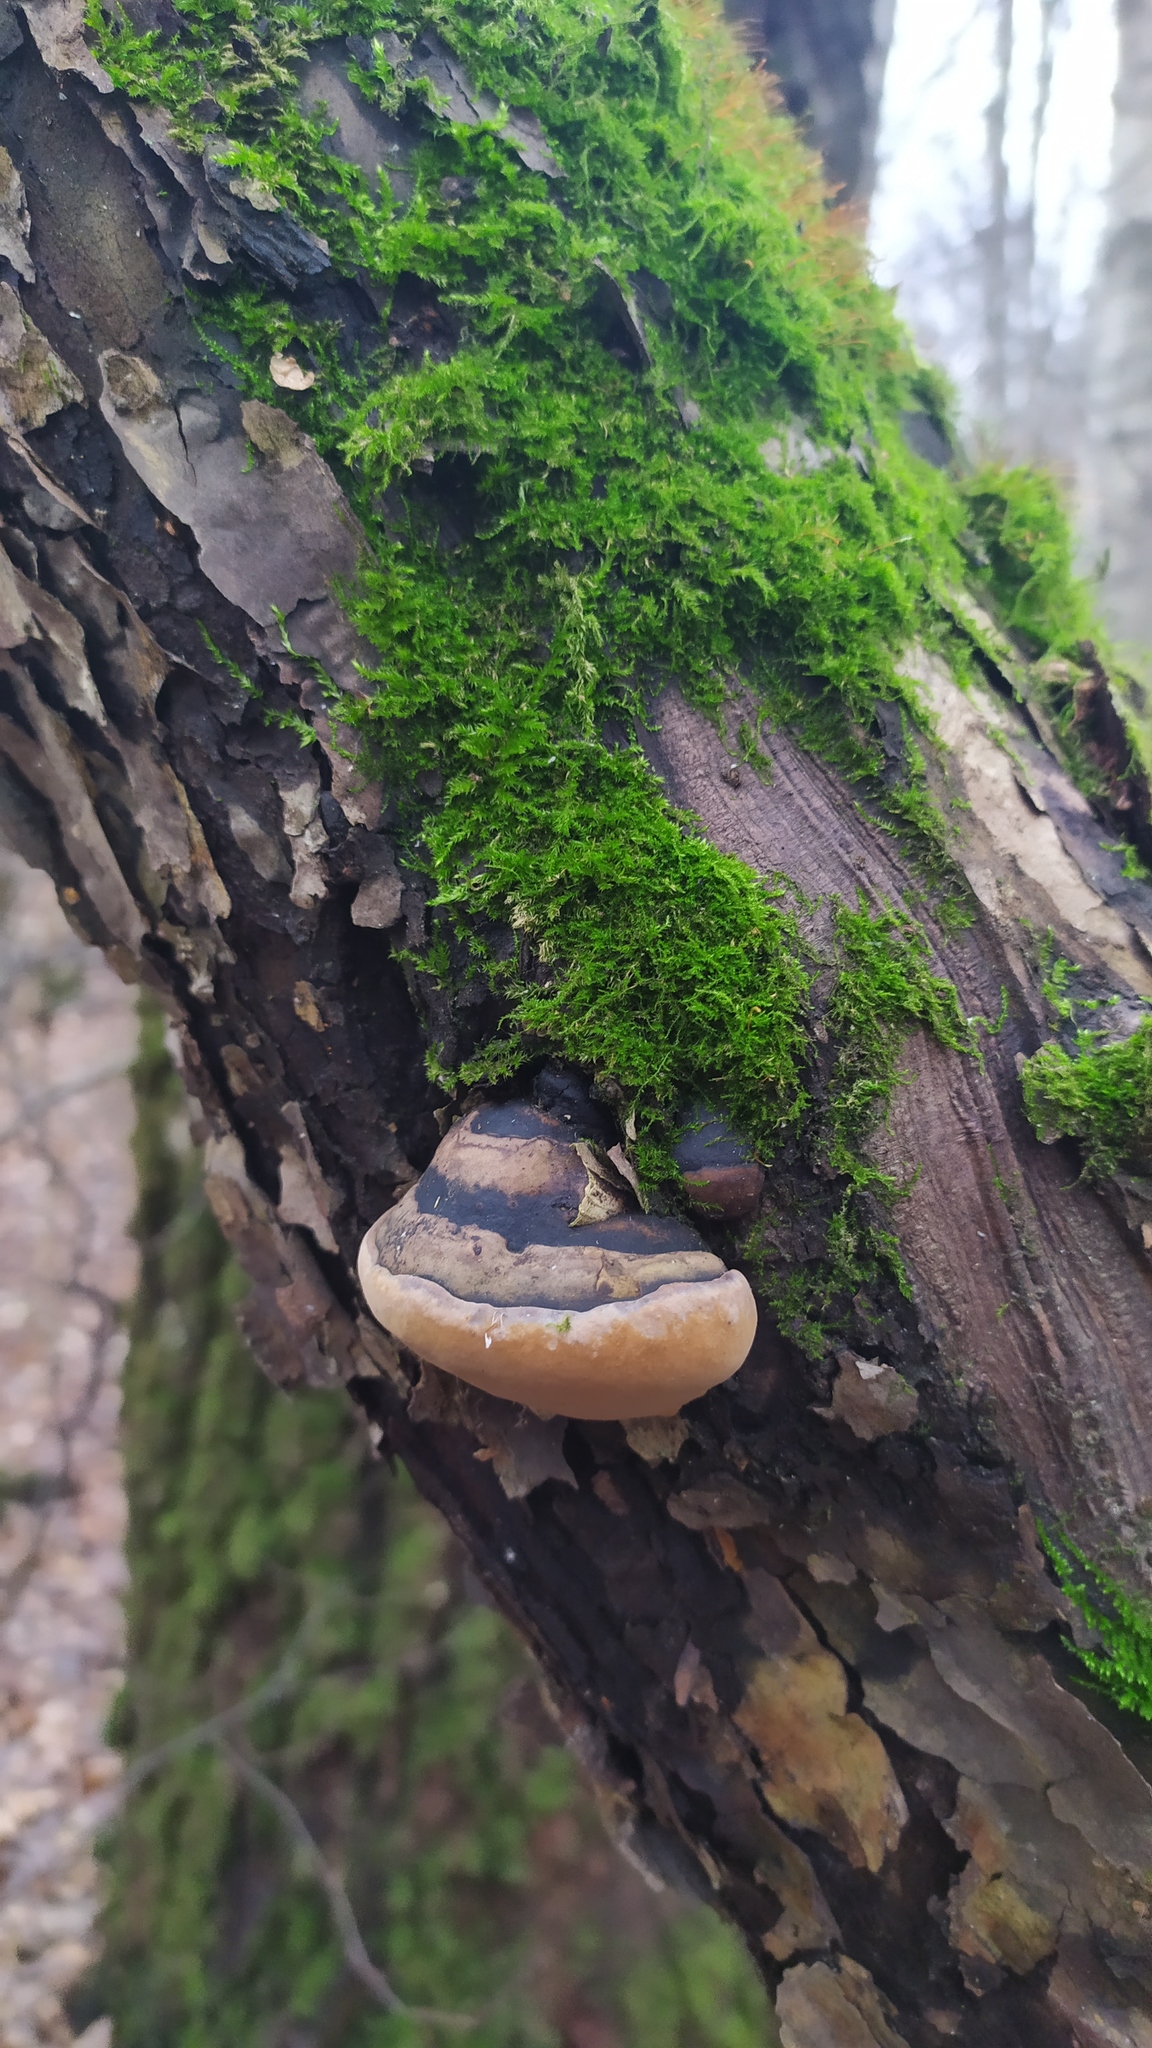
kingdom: Fungi
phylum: Basidiomycota
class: Agaricomycetes
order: Hymenochaetales
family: Hymenochaetaceae
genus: Phellinus
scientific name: Phellinus igniarius
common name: Willow bracket
